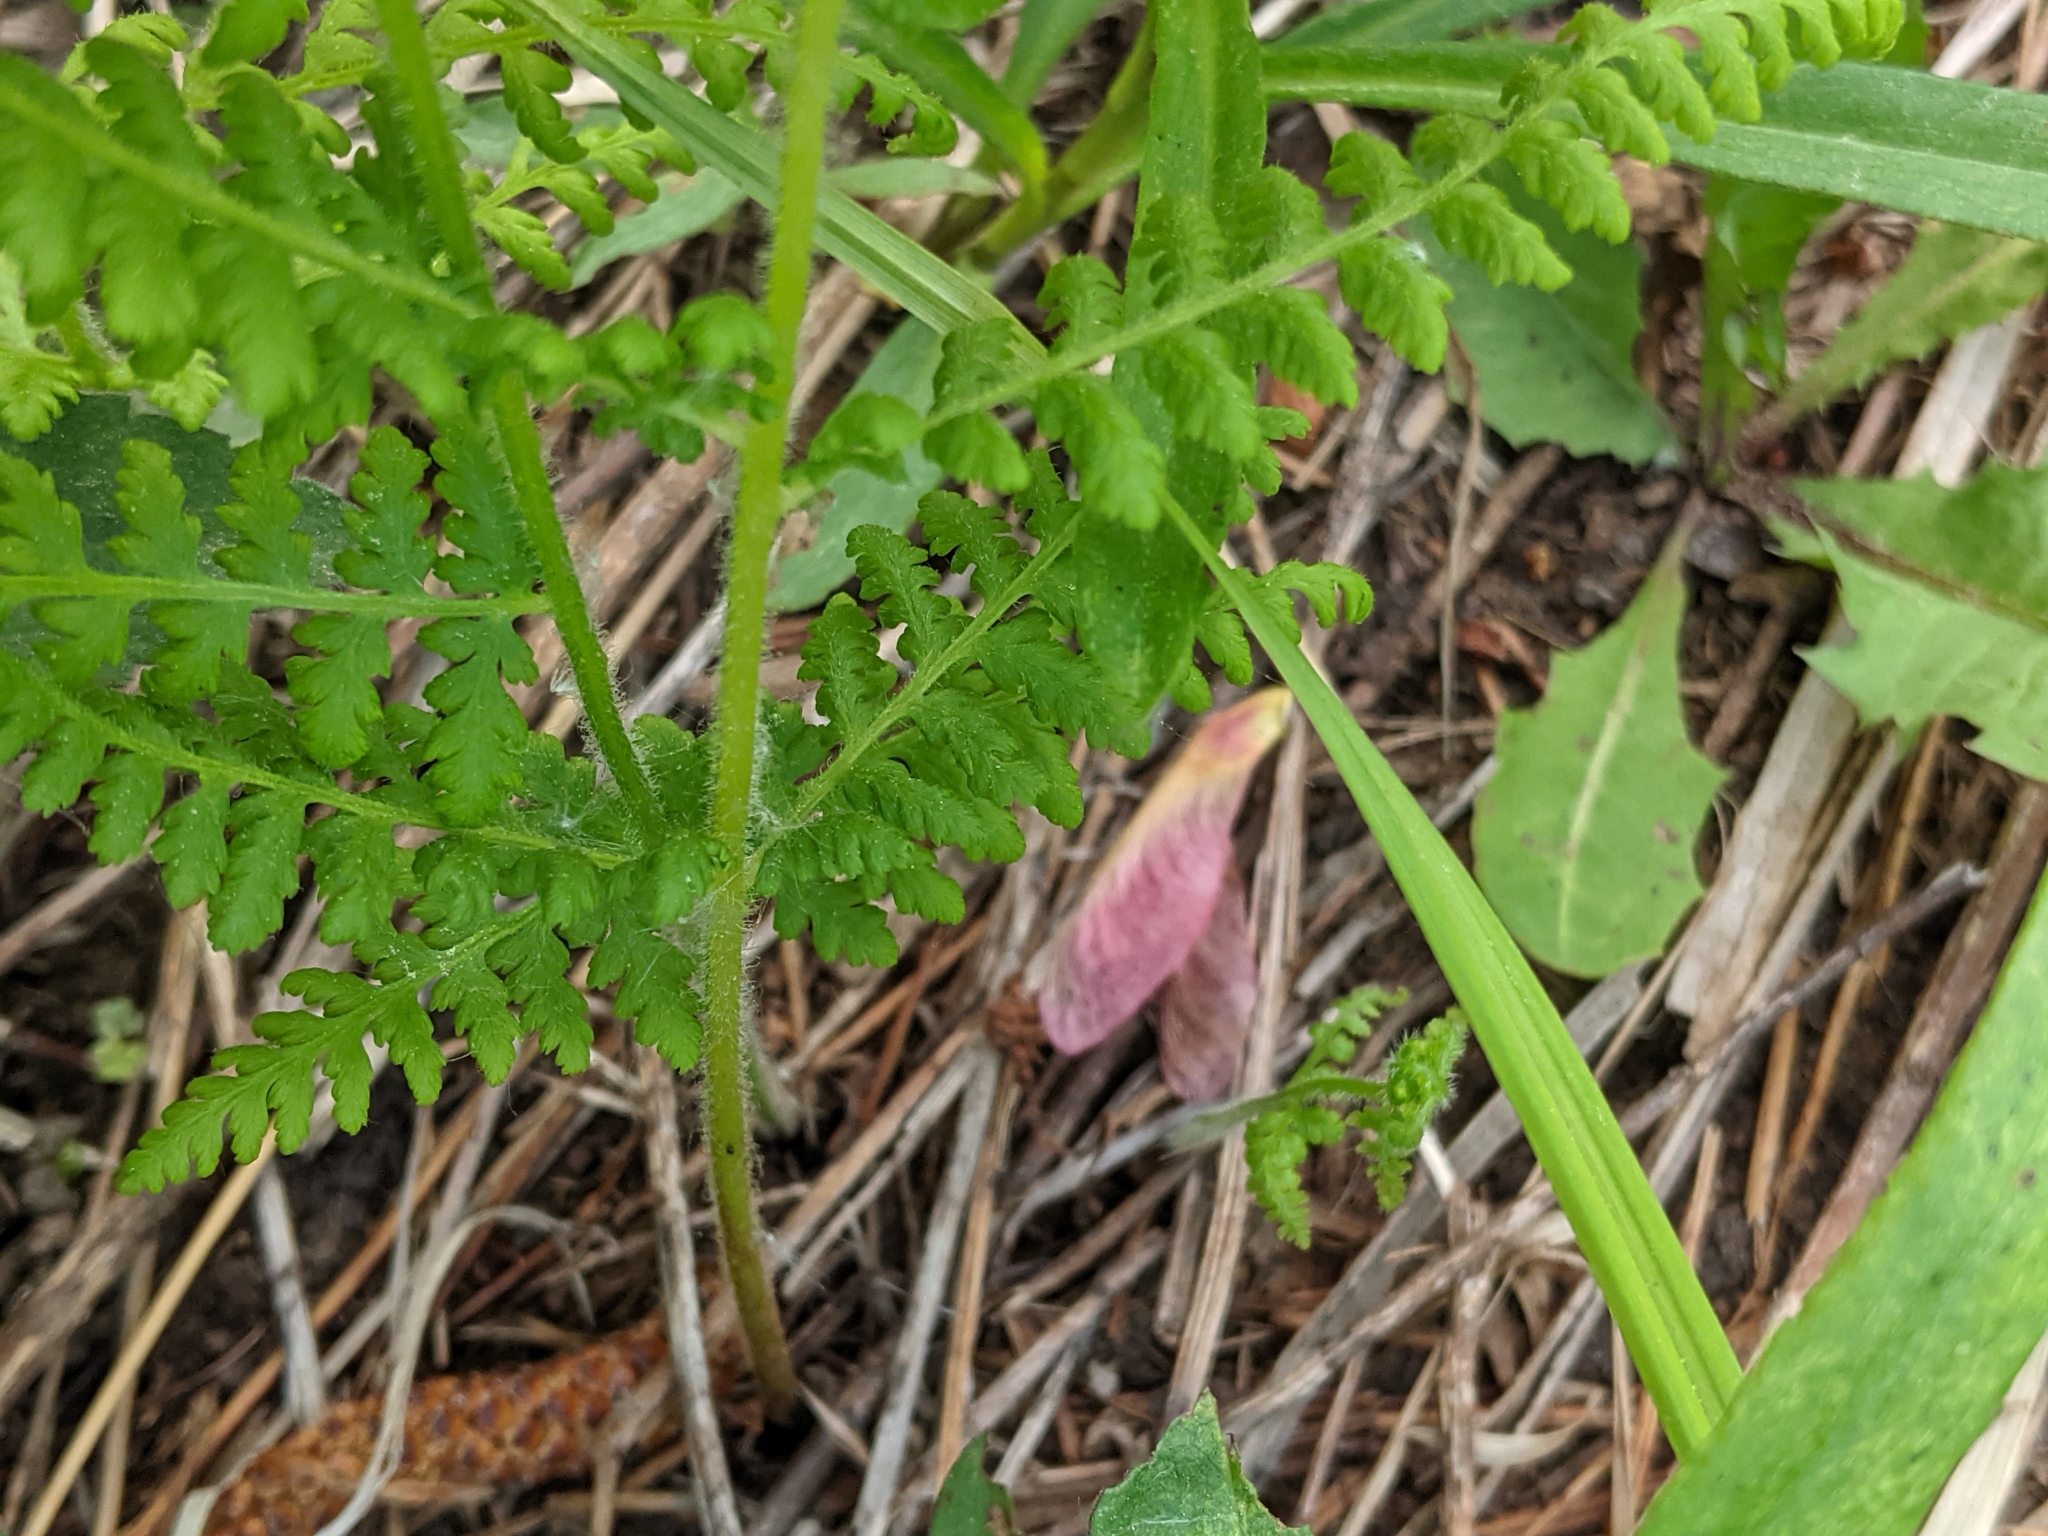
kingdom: Plantae
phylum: Tracheophyta
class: Polypodiopsida
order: Polypodiales
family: Dennstaedtiaceae
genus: Sitobolium
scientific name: Sitobolium punctilobum
